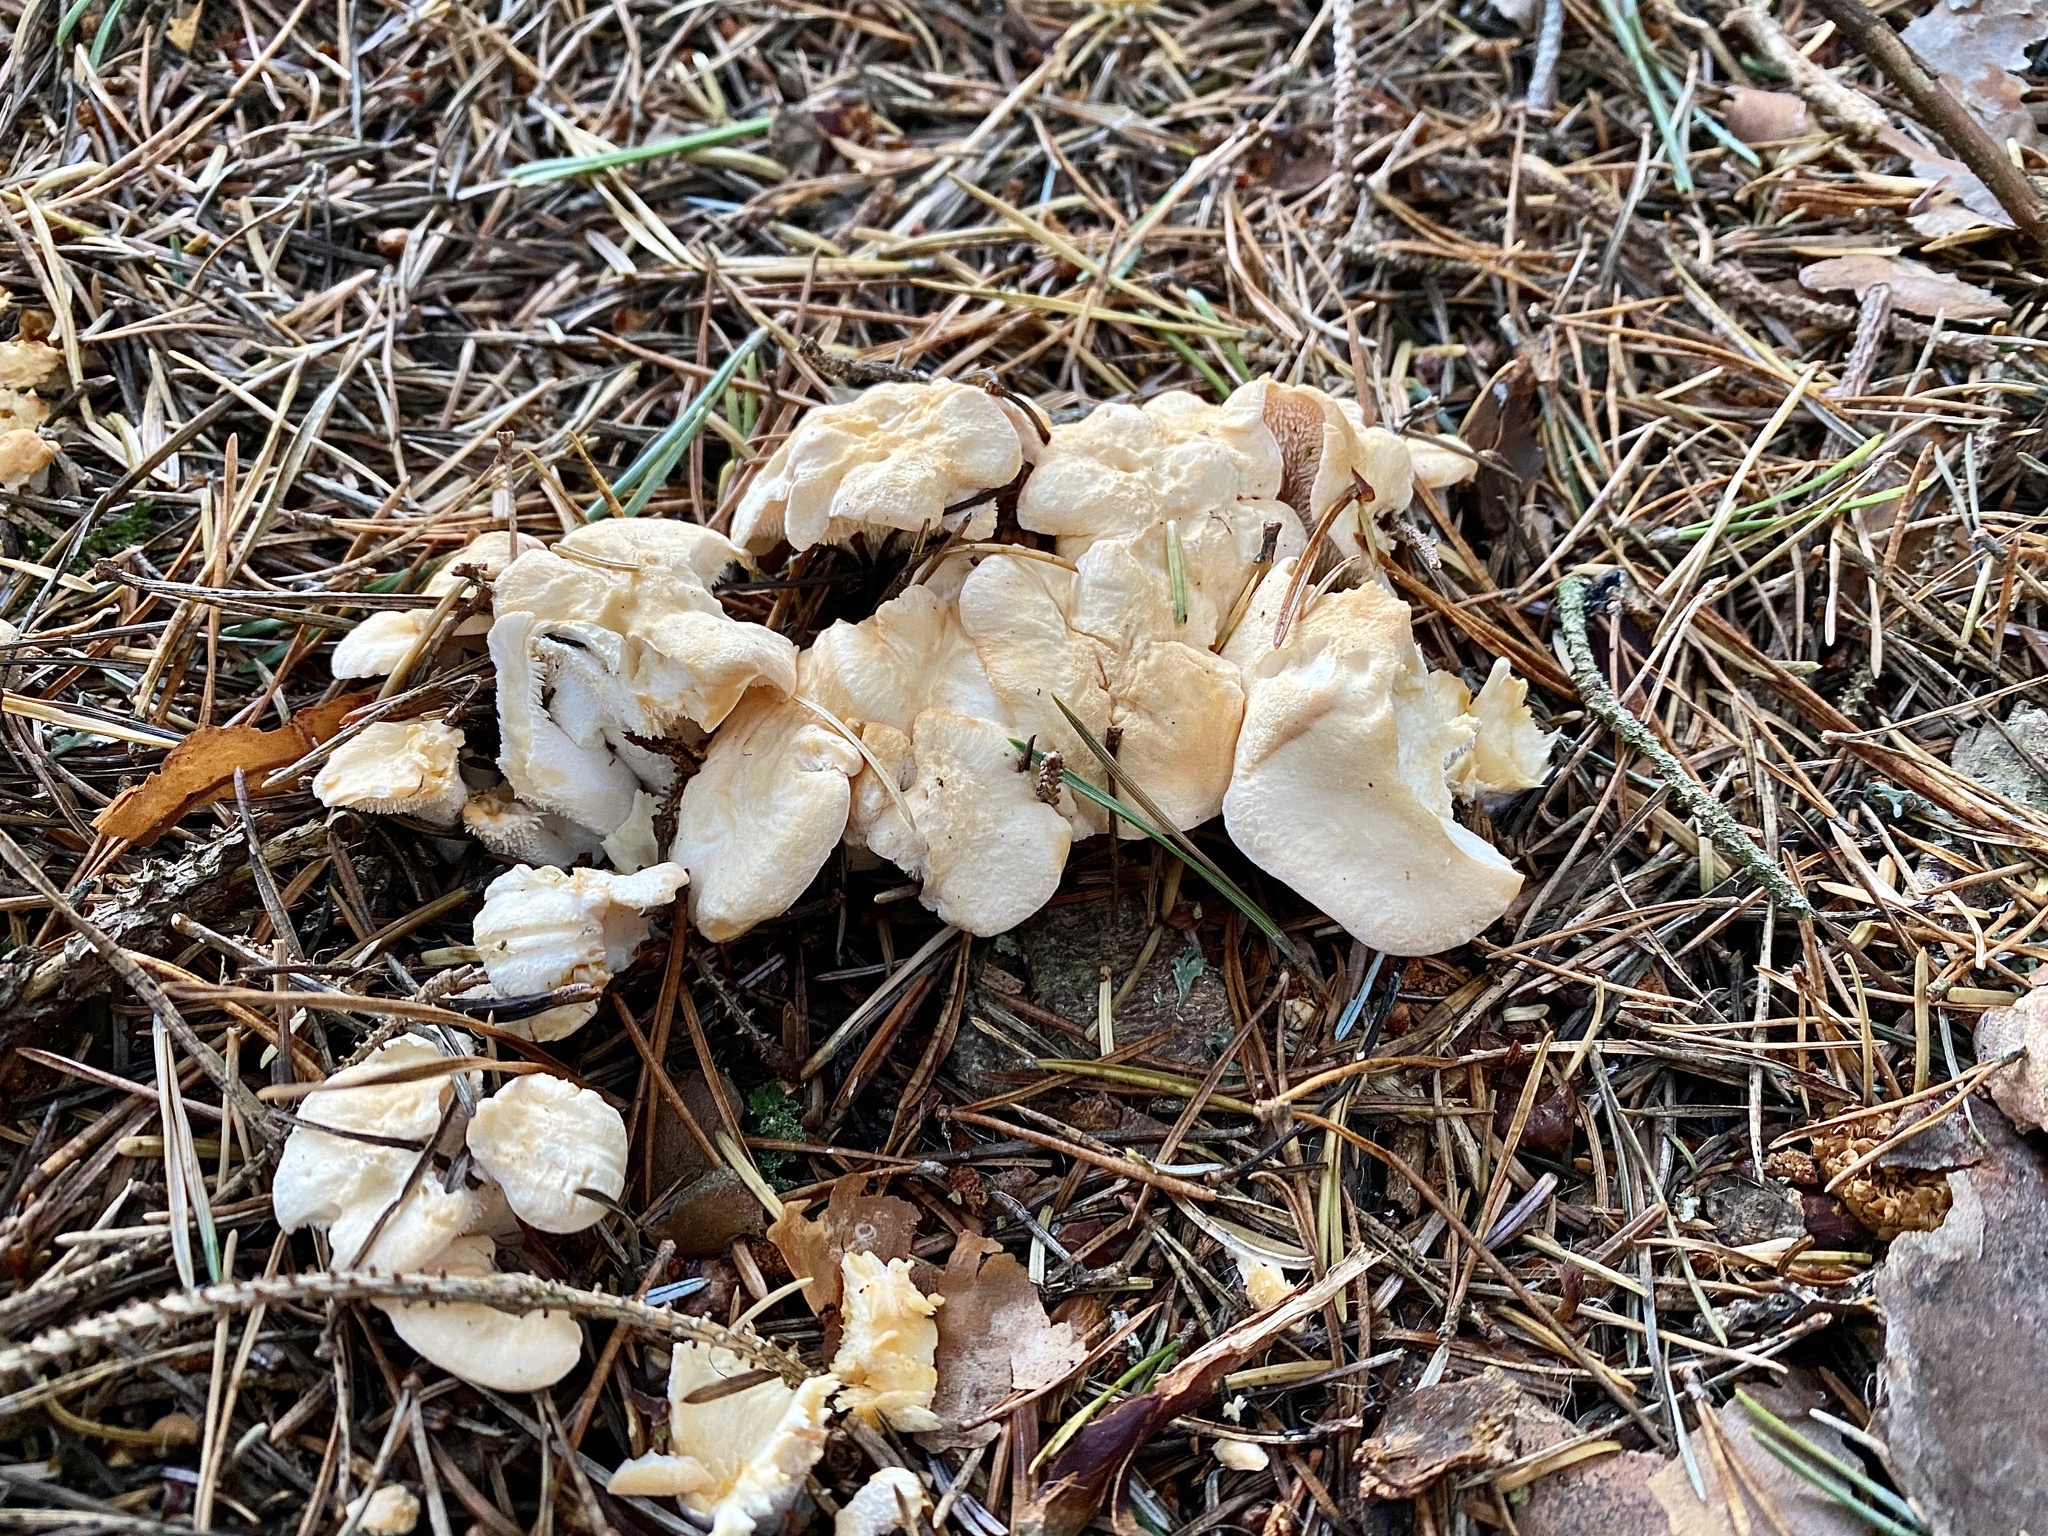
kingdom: Fungi
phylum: Basidiomycota
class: Agaricomycetes
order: Cantharellales
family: Hydnaceae
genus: Hydnum
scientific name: Hydnum repandum
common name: Wood hedgehog
